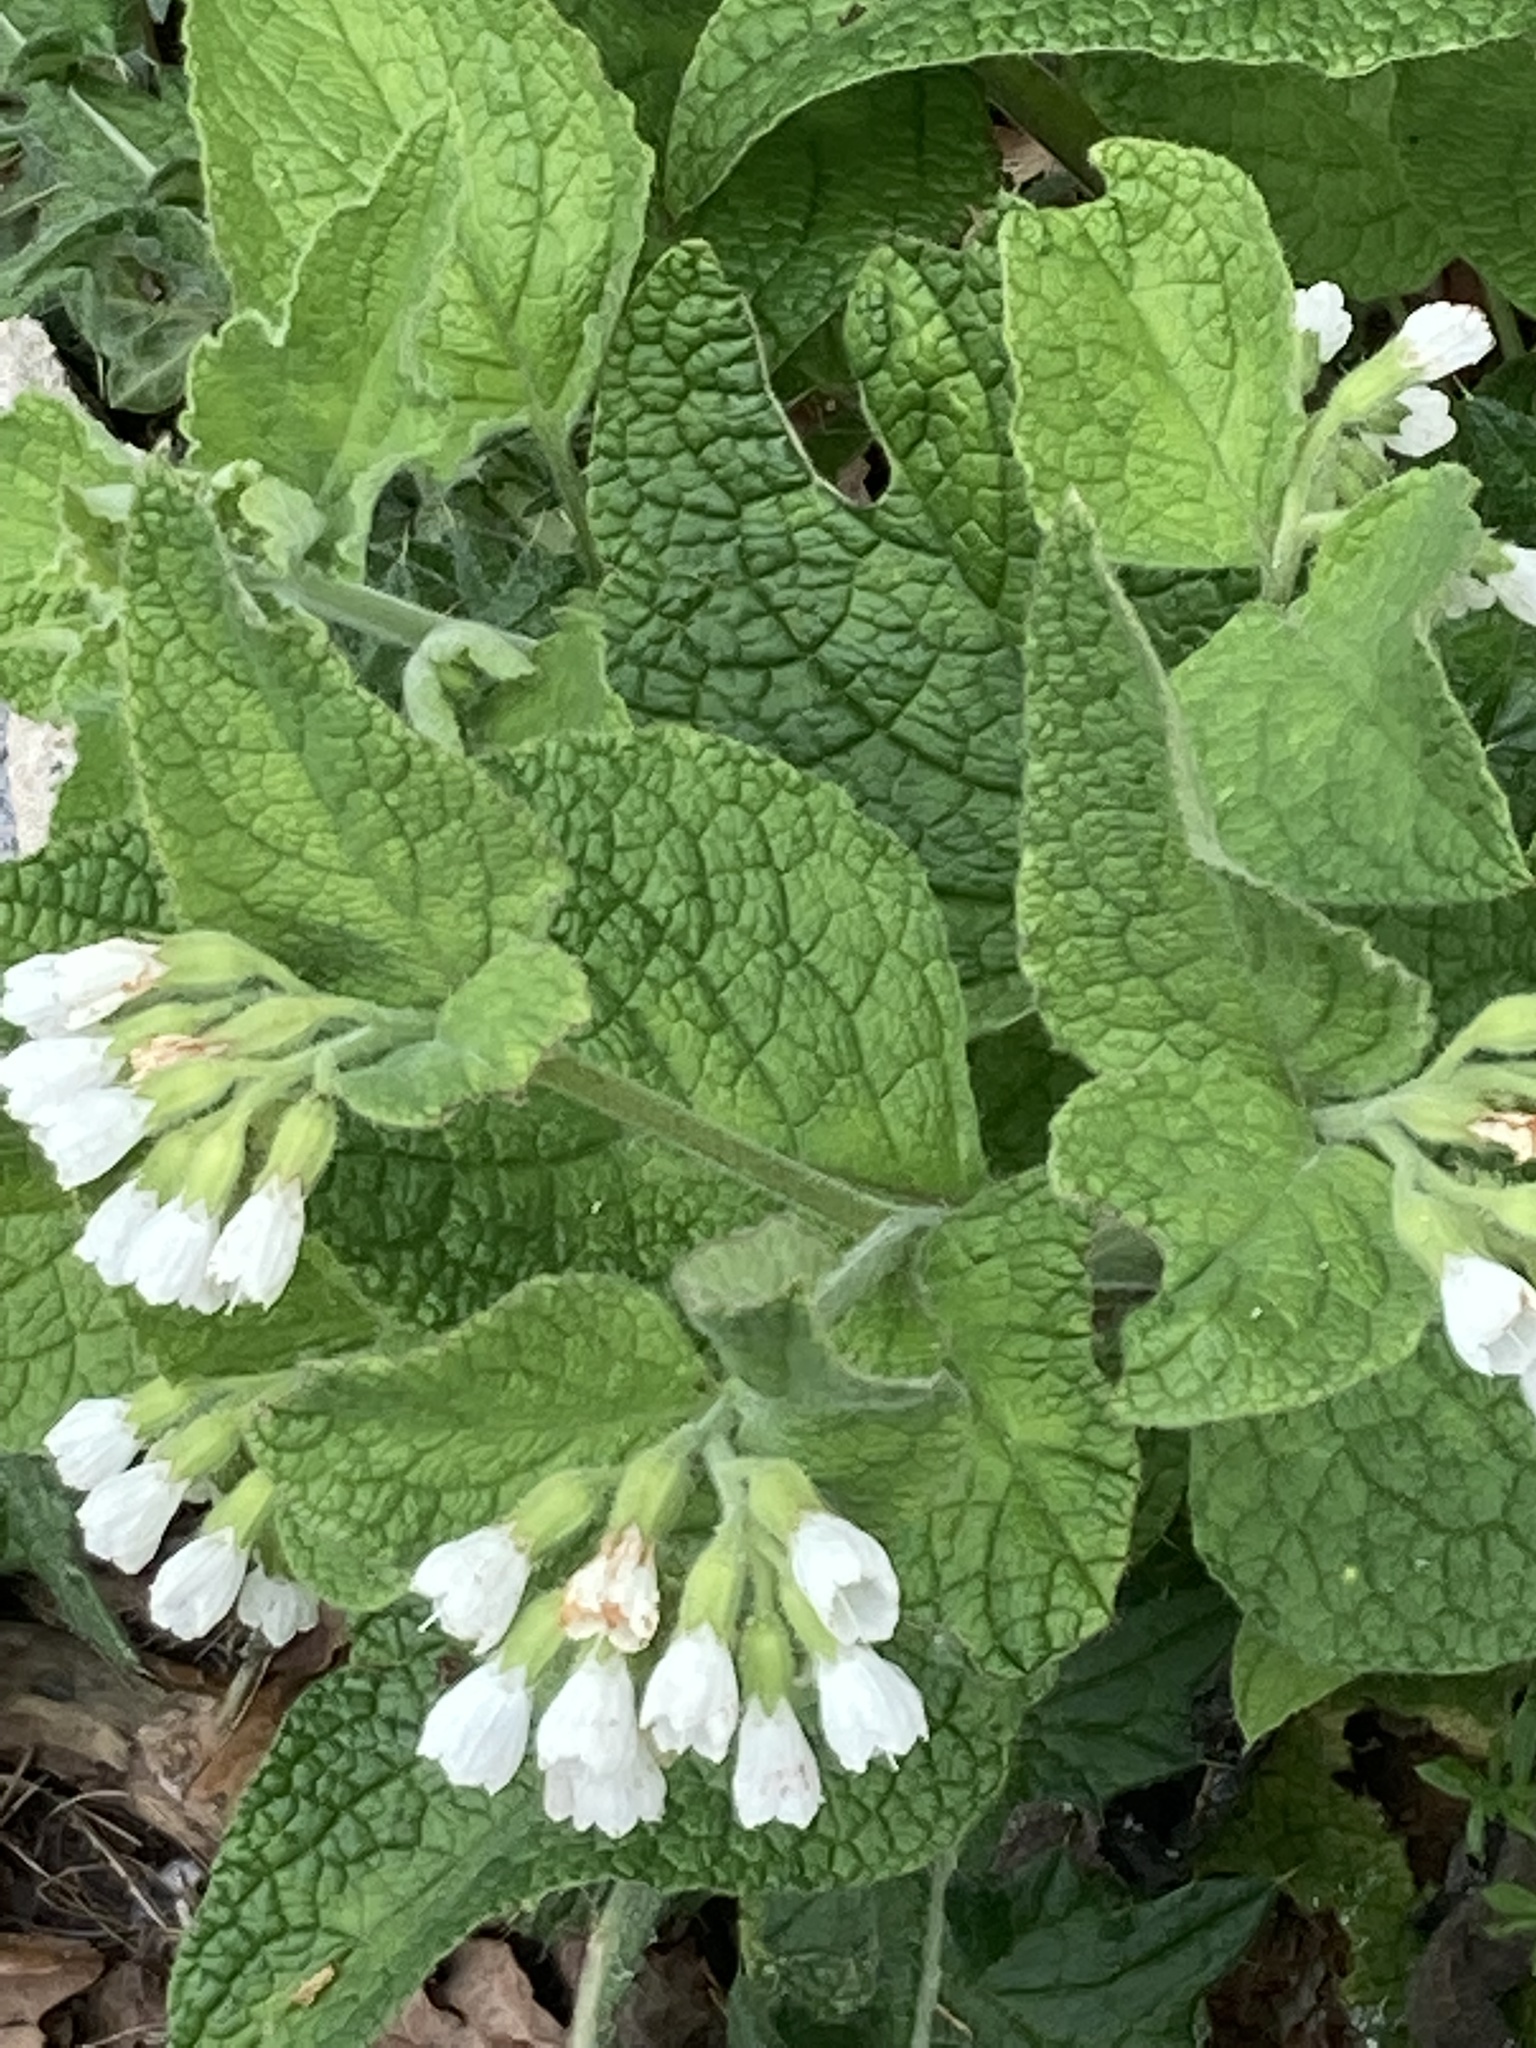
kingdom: Plantae
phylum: Tracheophyta
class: Magnoliopsida
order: Boraginales
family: Boraginaceae
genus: Symphytum
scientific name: Symphytum orientale
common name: White comfrey
